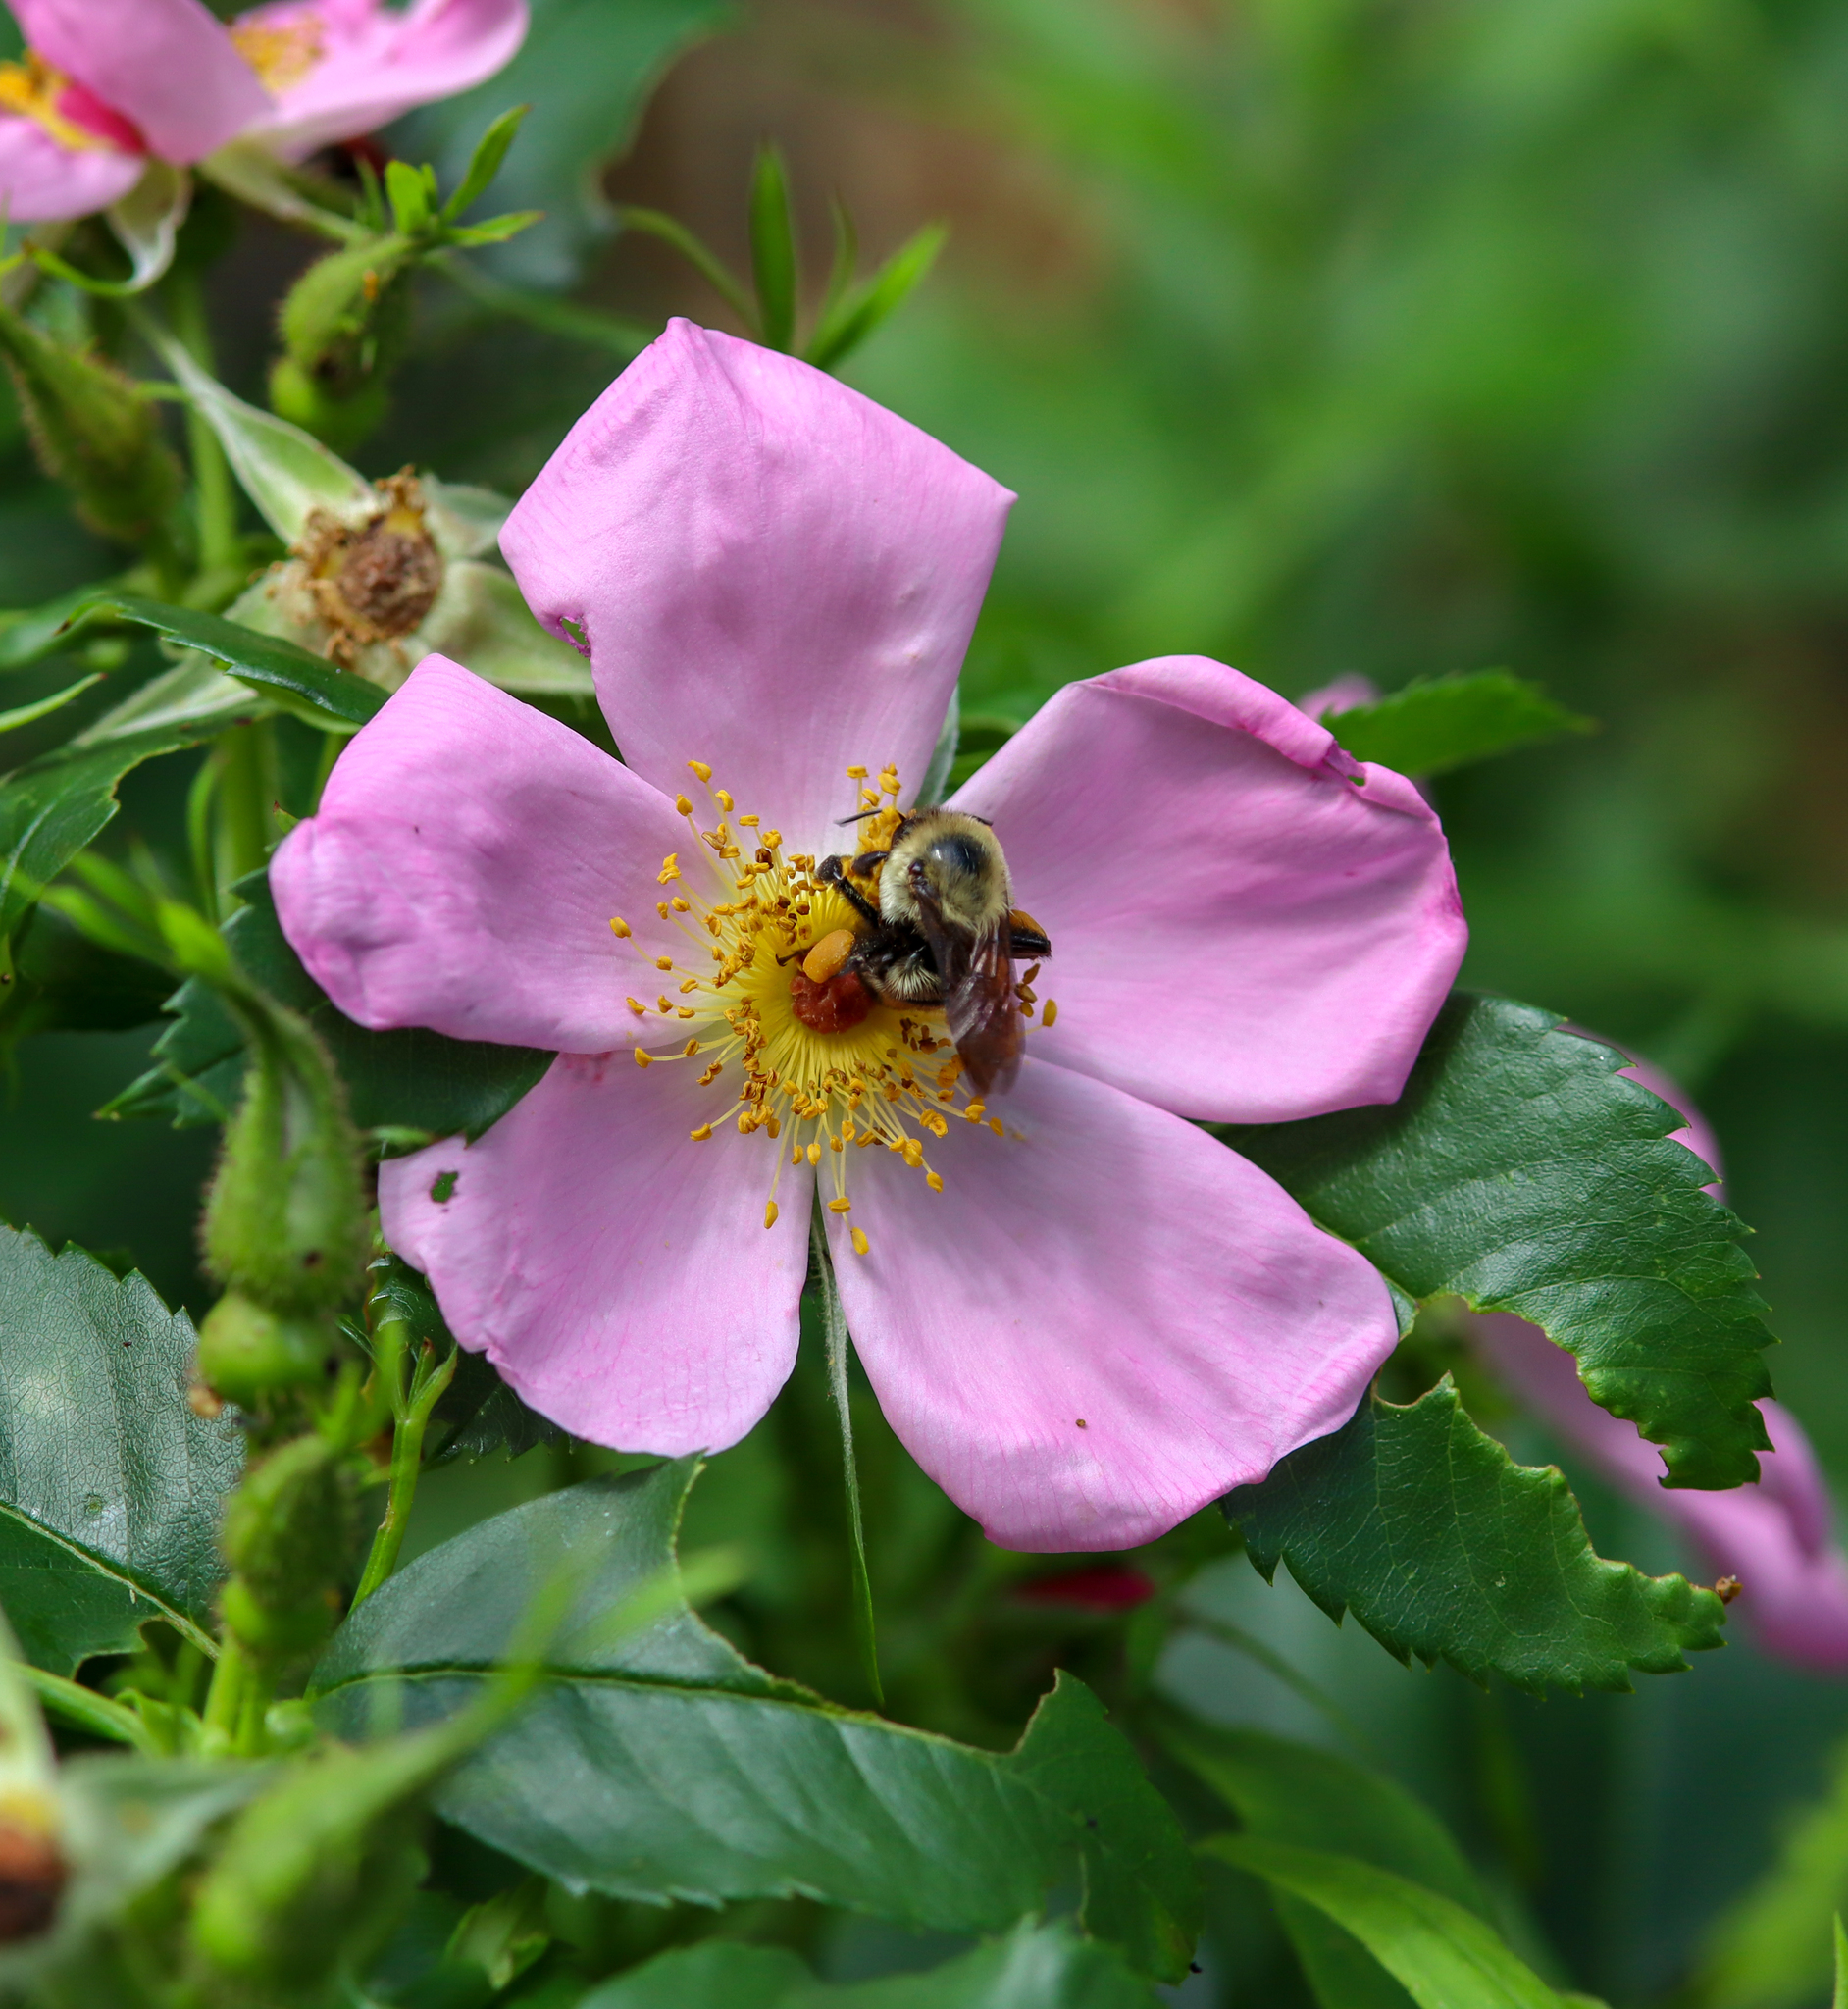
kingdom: Animalia
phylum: Arthropoda
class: Insecta
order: Hymenoptera
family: Apidae
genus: Bombus
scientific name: Bombus griseocollis
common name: Brown-belted bumble bee
